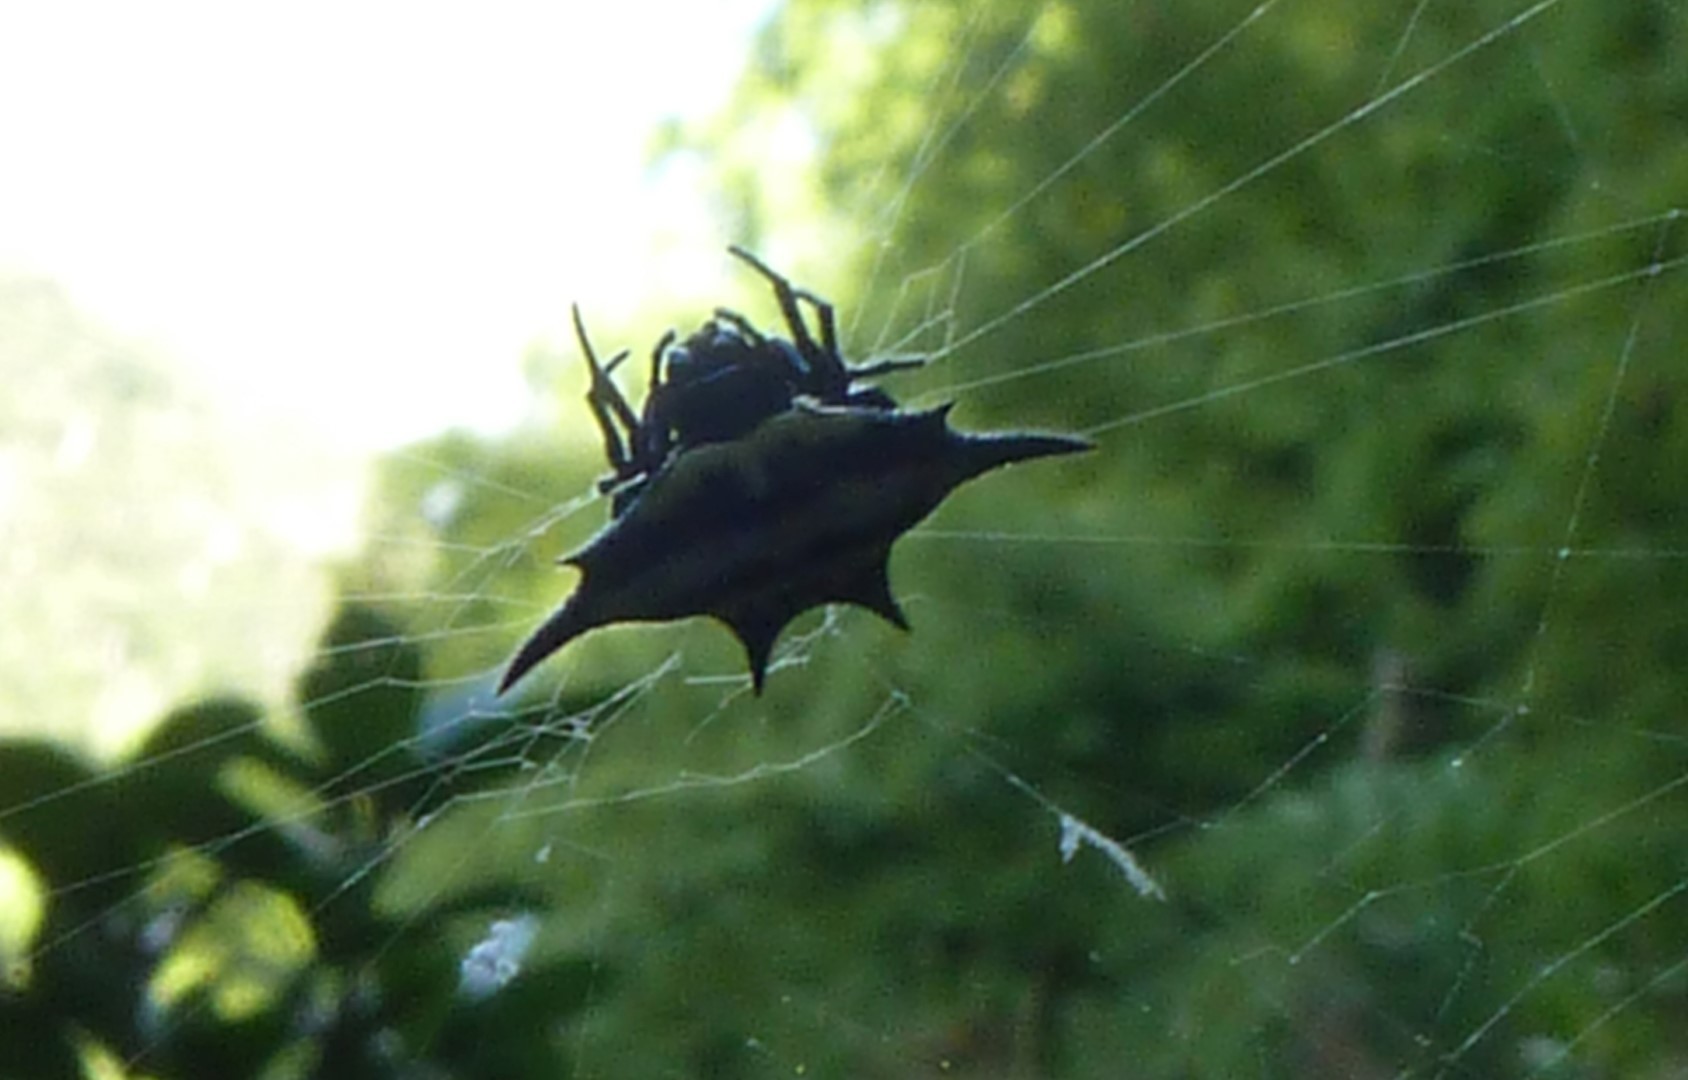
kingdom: Animalia
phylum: Arthropoda
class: Arachnida
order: Araneae
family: Araneidae
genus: Gasteracantha
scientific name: Gasteracantha rhomboidea
